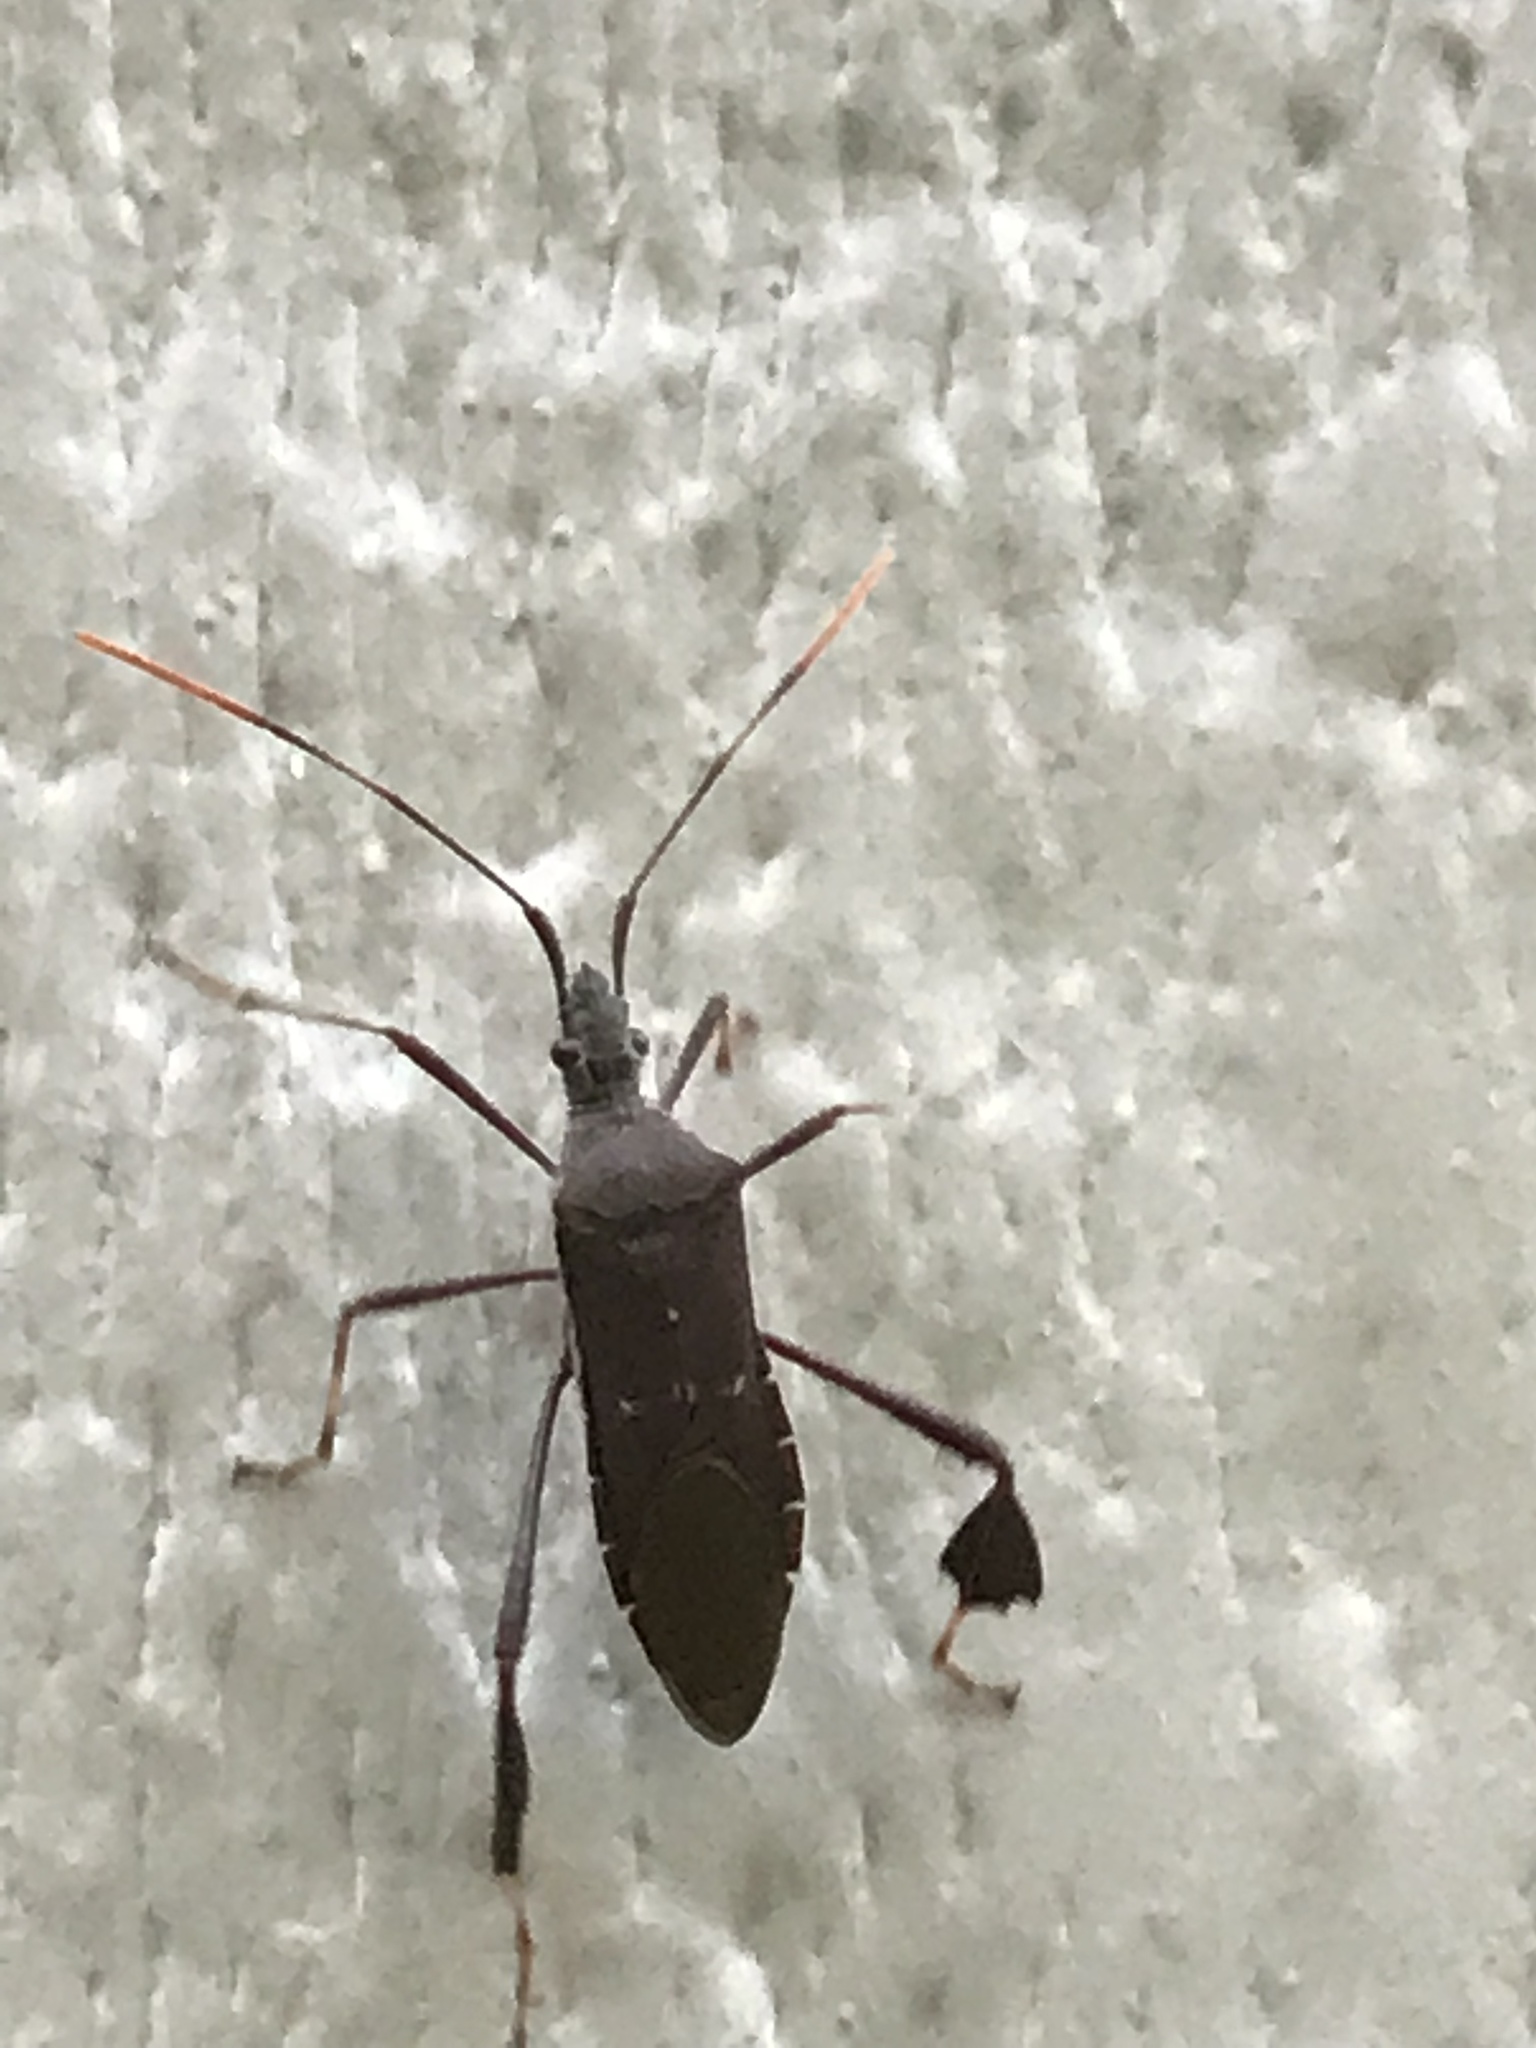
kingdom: Animalia
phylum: Arthropoda
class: Insecta
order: Hemiptera
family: Coreidae
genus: Leptoglossus
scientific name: Leptoglossus oppositus
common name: Northern leaf-footed bug
